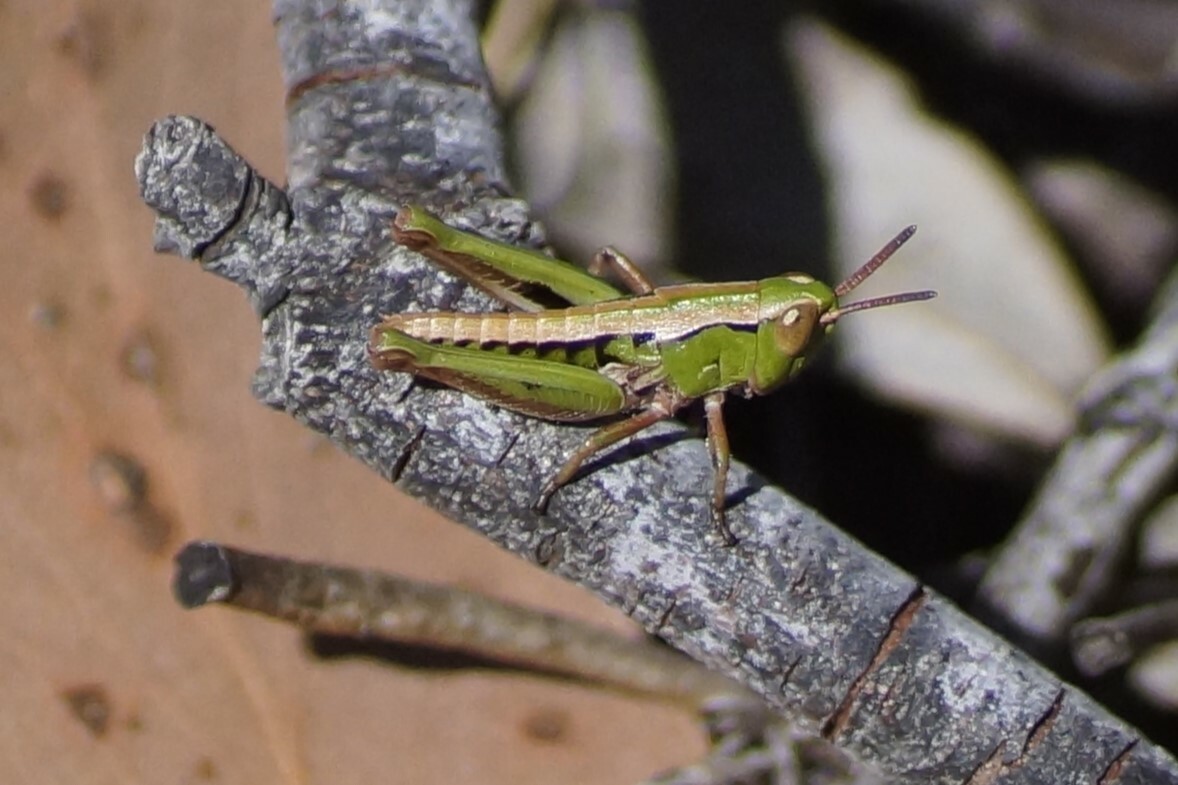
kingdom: Animalia
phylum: Arthropoda
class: Insecta
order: Orthoptera
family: Acrididae
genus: Russalpia
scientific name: Russalpia albertisi
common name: Tassie hopper
